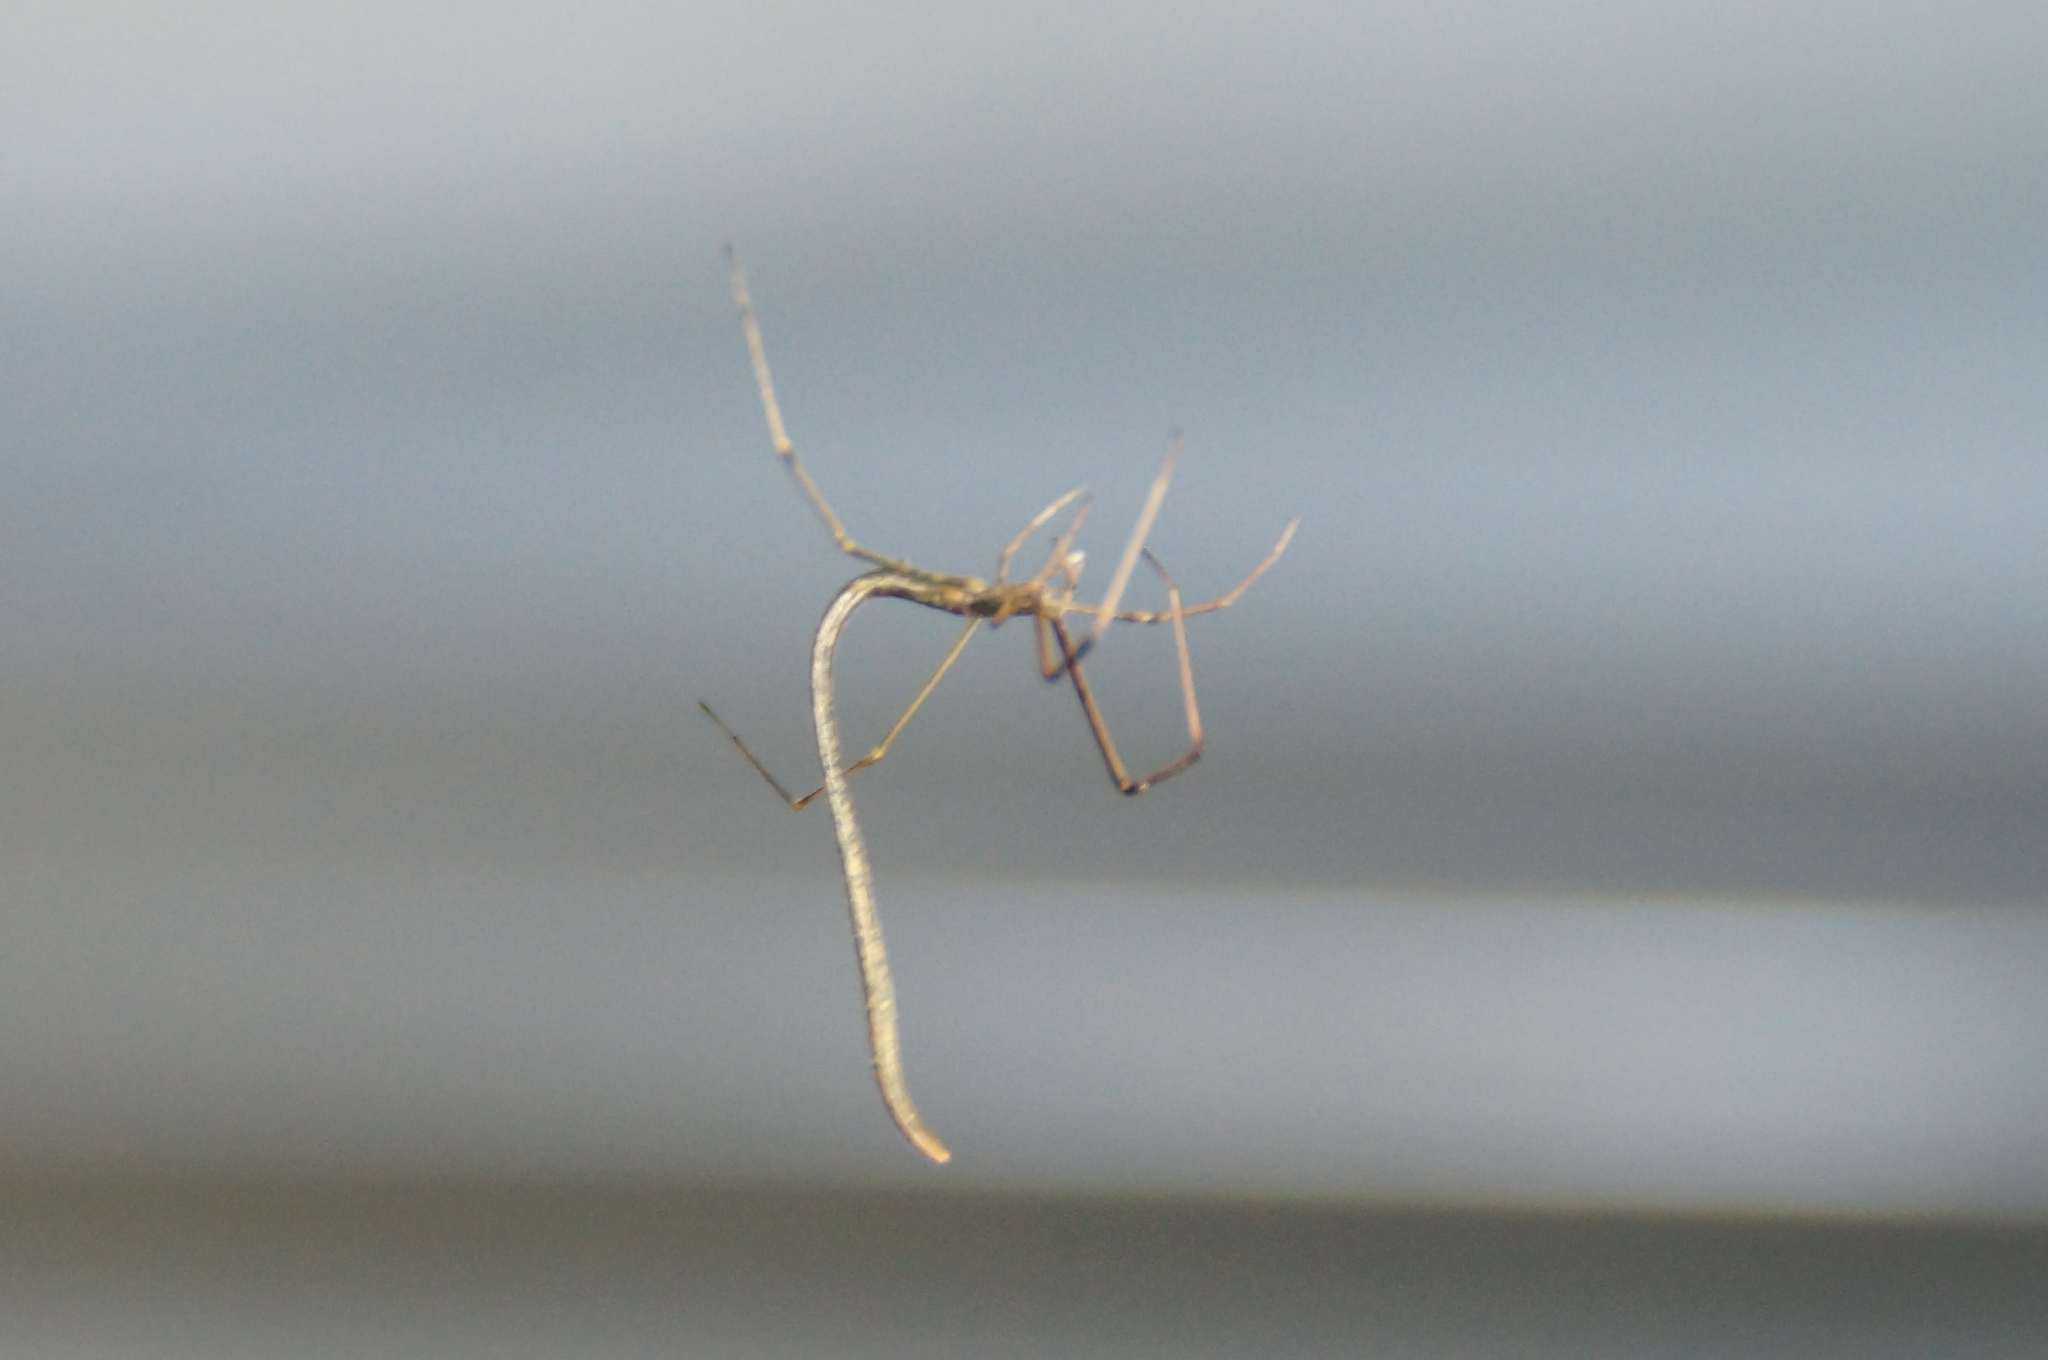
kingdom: Animalia
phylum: Arthropoda
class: Arachnida
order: Araneae
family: Theridiidae
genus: Ariamnes
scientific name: Ariamnes colubrinus
